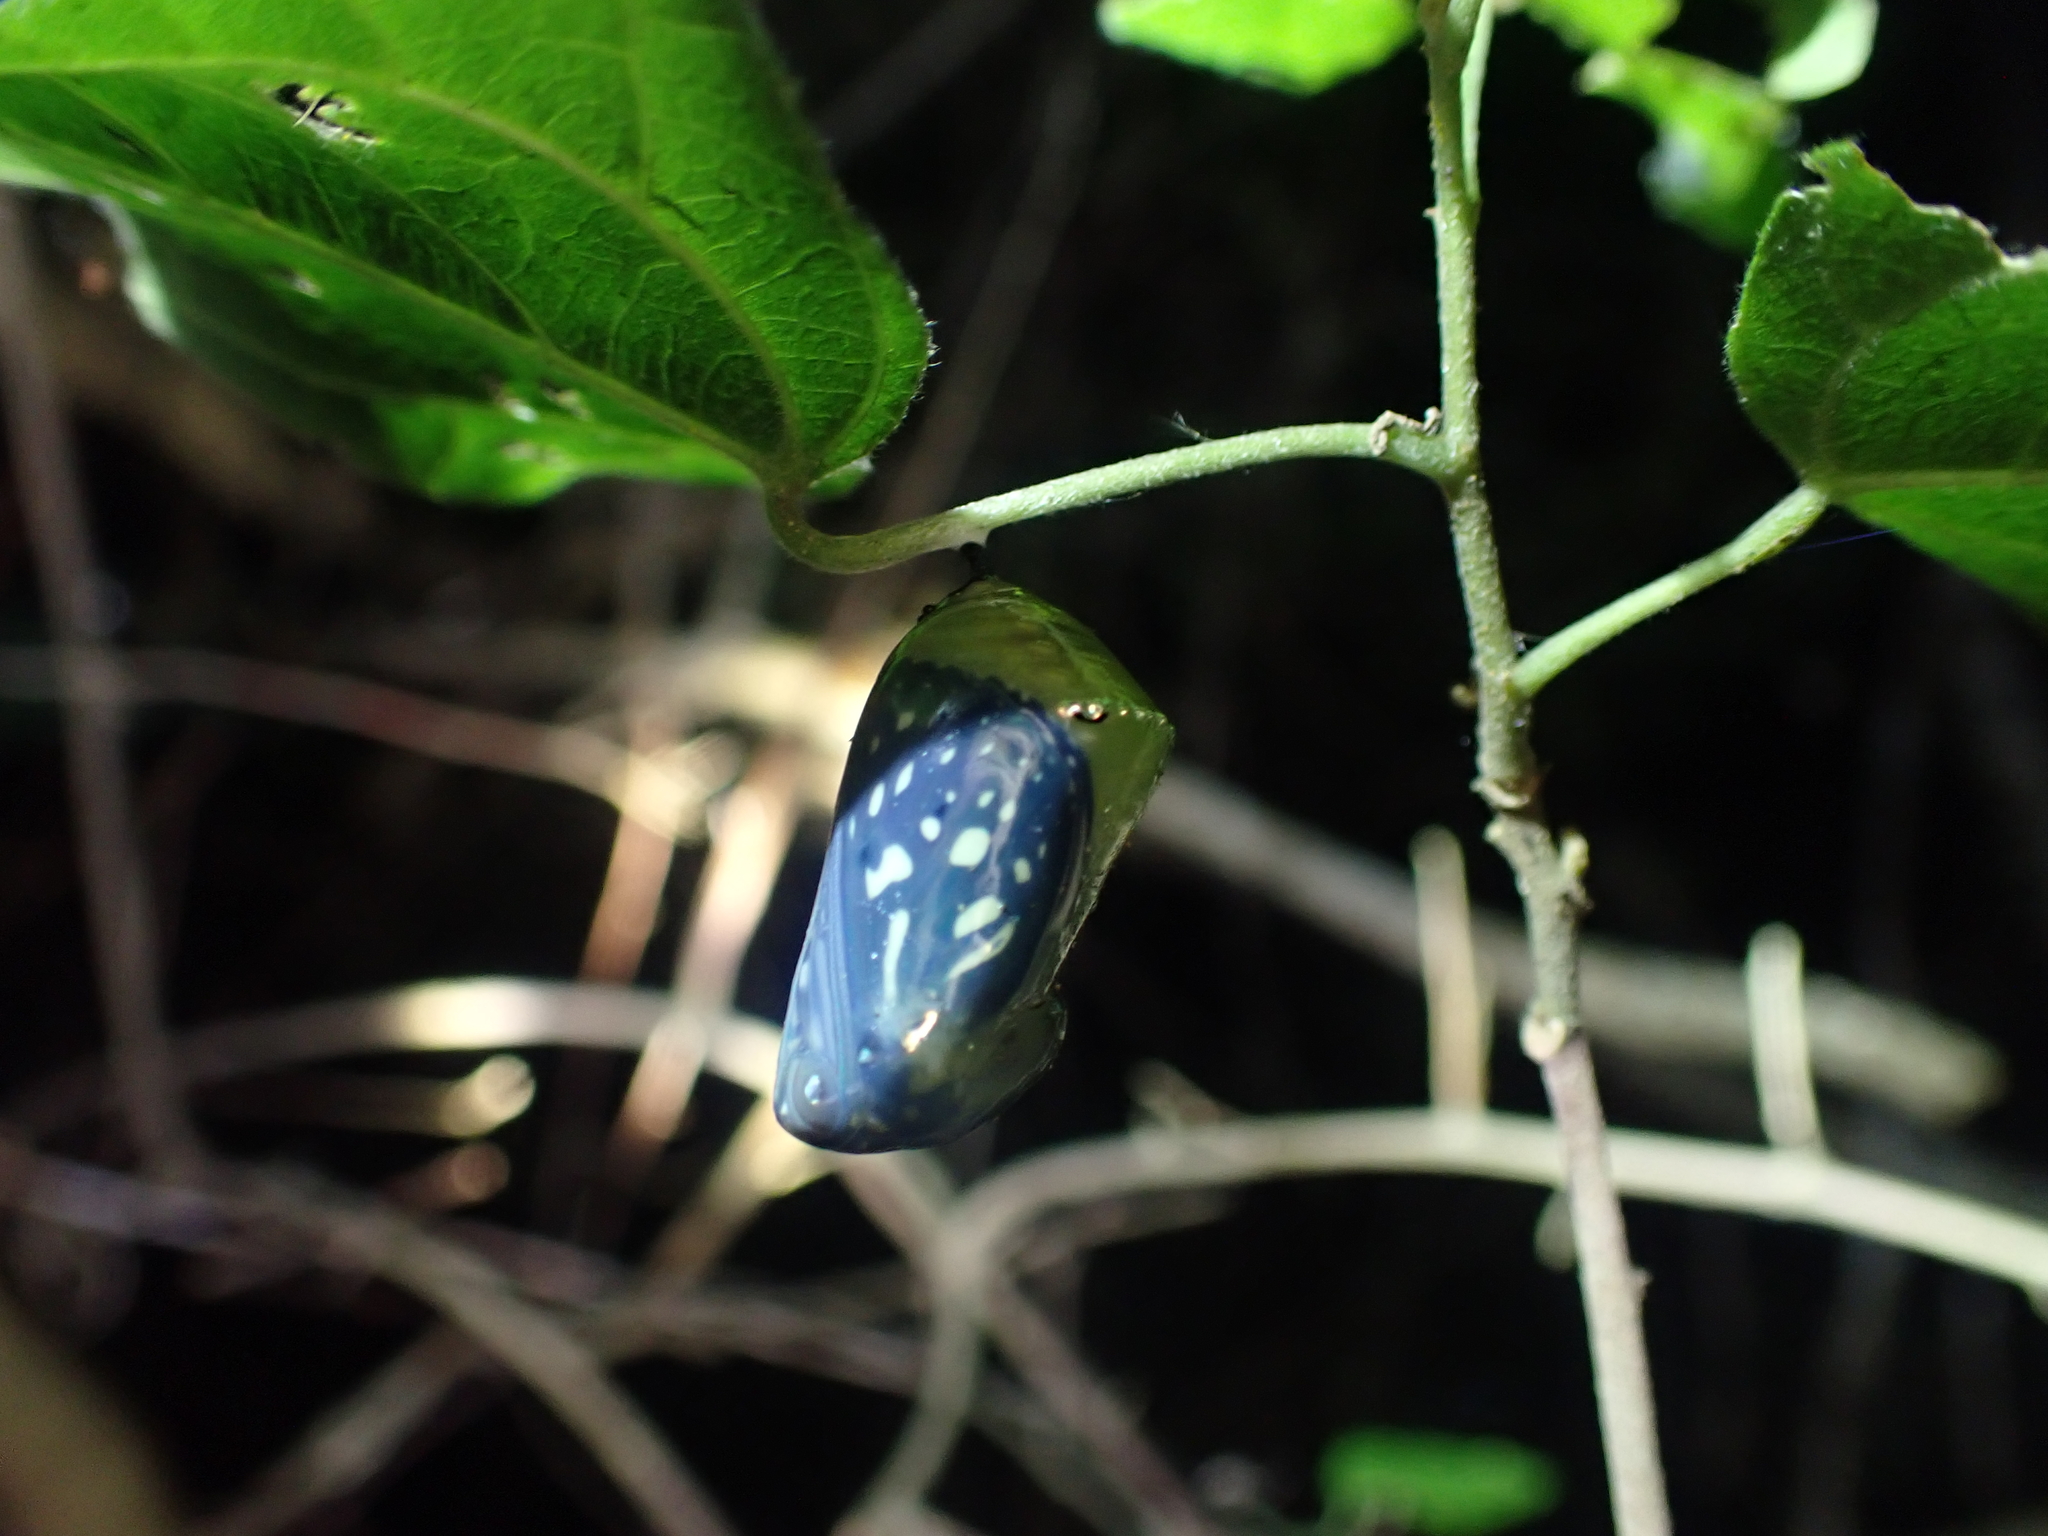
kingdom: Animalia
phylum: Arthropoda
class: Insecta
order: Lepidoptera
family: Nymphalidae
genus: Tirumala
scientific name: Tirumala limniace
